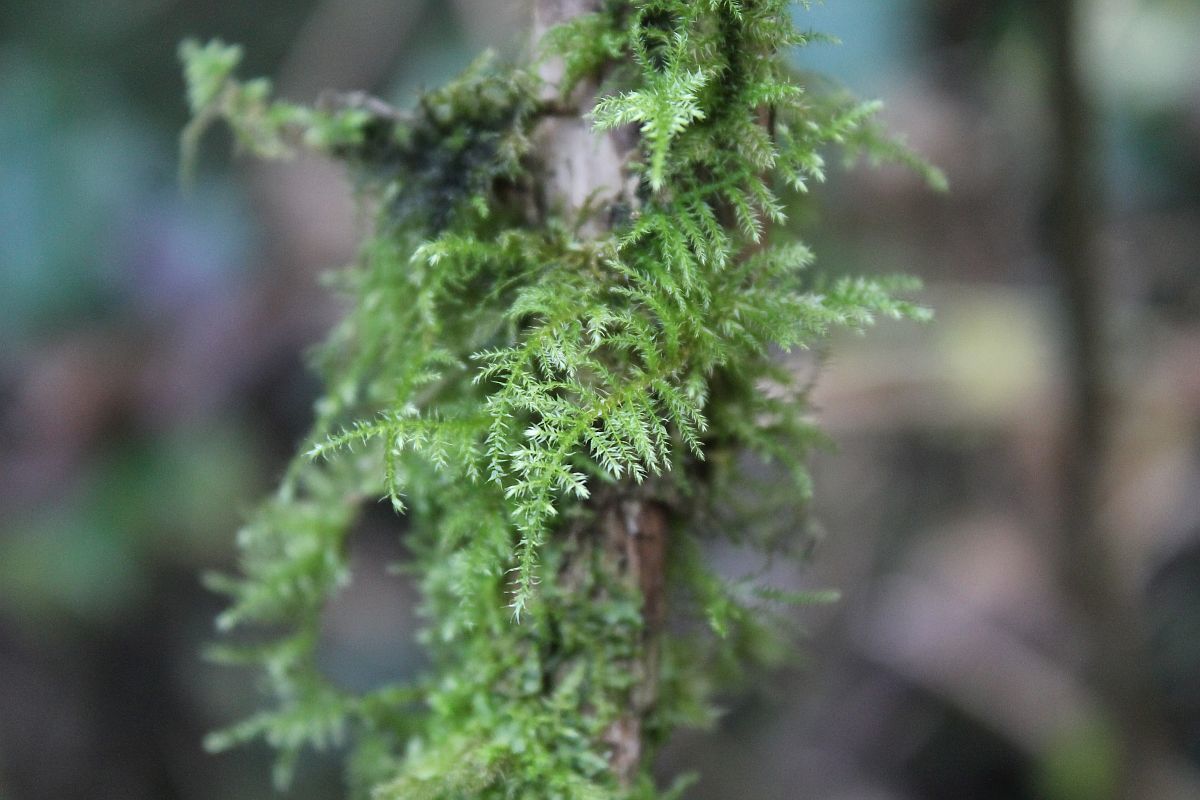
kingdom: Plantae
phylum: Bryophyta
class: Bryopsida
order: Hypnales
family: Brachytheciaceae
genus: Kindbergia
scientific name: Kindbergia praelonga
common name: Slender beaked moss
